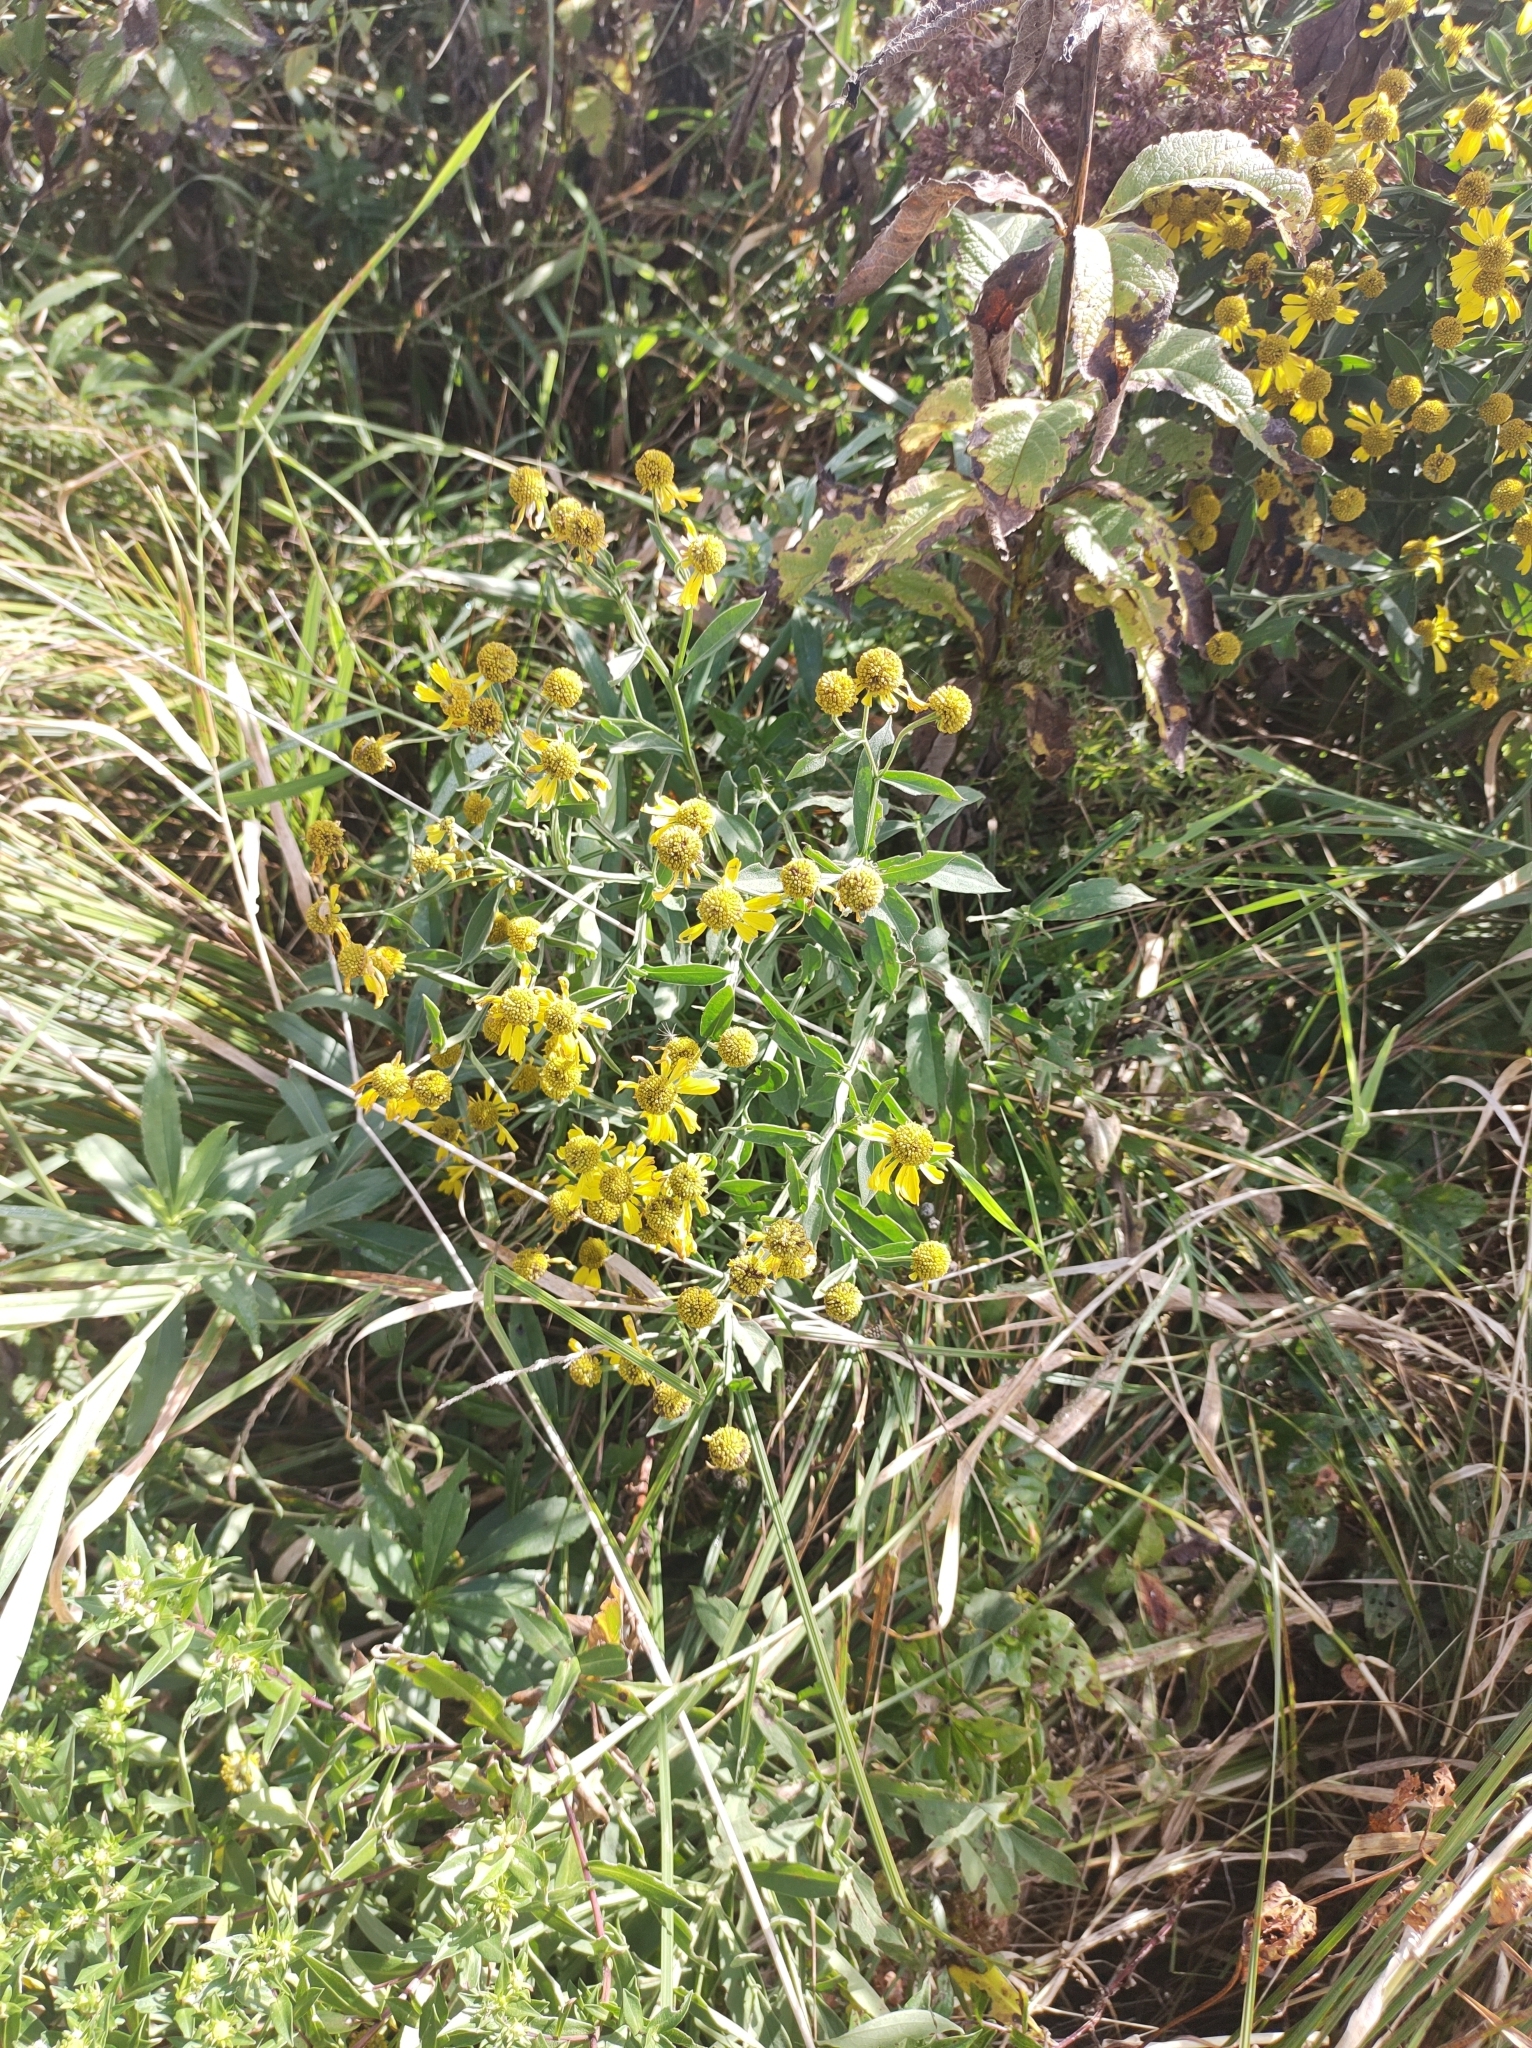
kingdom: Plantae
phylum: Tracheophyta
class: Magnoliopsida
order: Asterales
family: Asteraceae
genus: Helenium
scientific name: Helenium autumnale
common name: Sneezeweed
